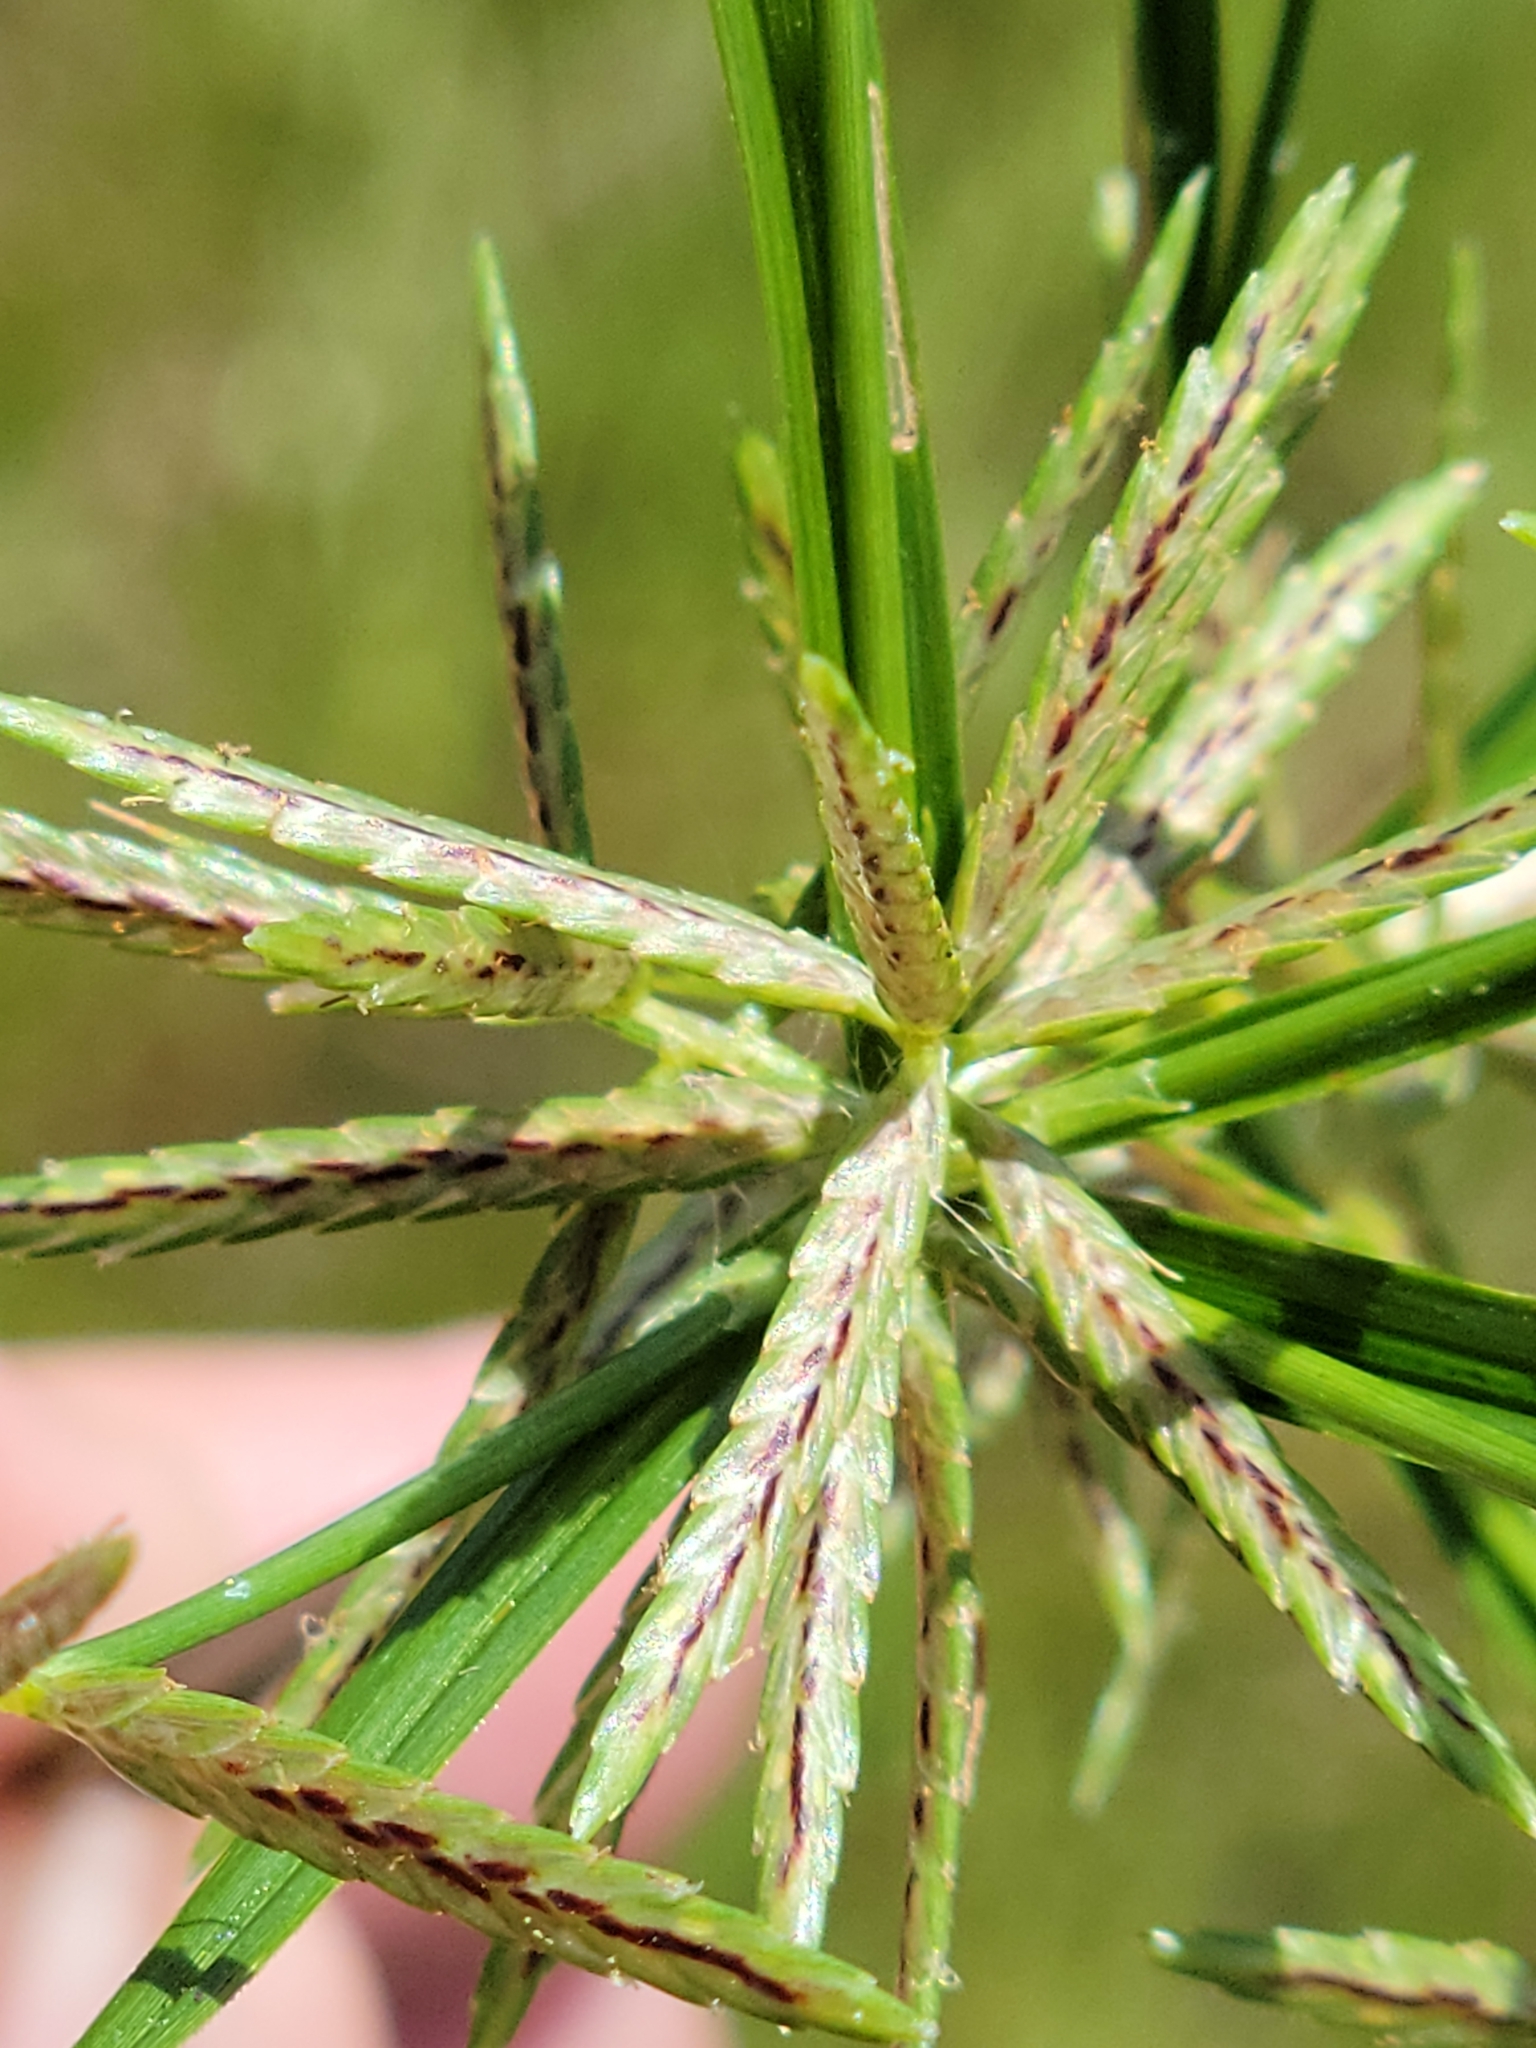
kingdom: Plantae
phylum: Tracheophyta
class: Liliopsida
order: Poales
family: Cyperaceae
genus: Cyperus
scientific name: Cyperus sphacelatus
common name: Roadside flatsedge
